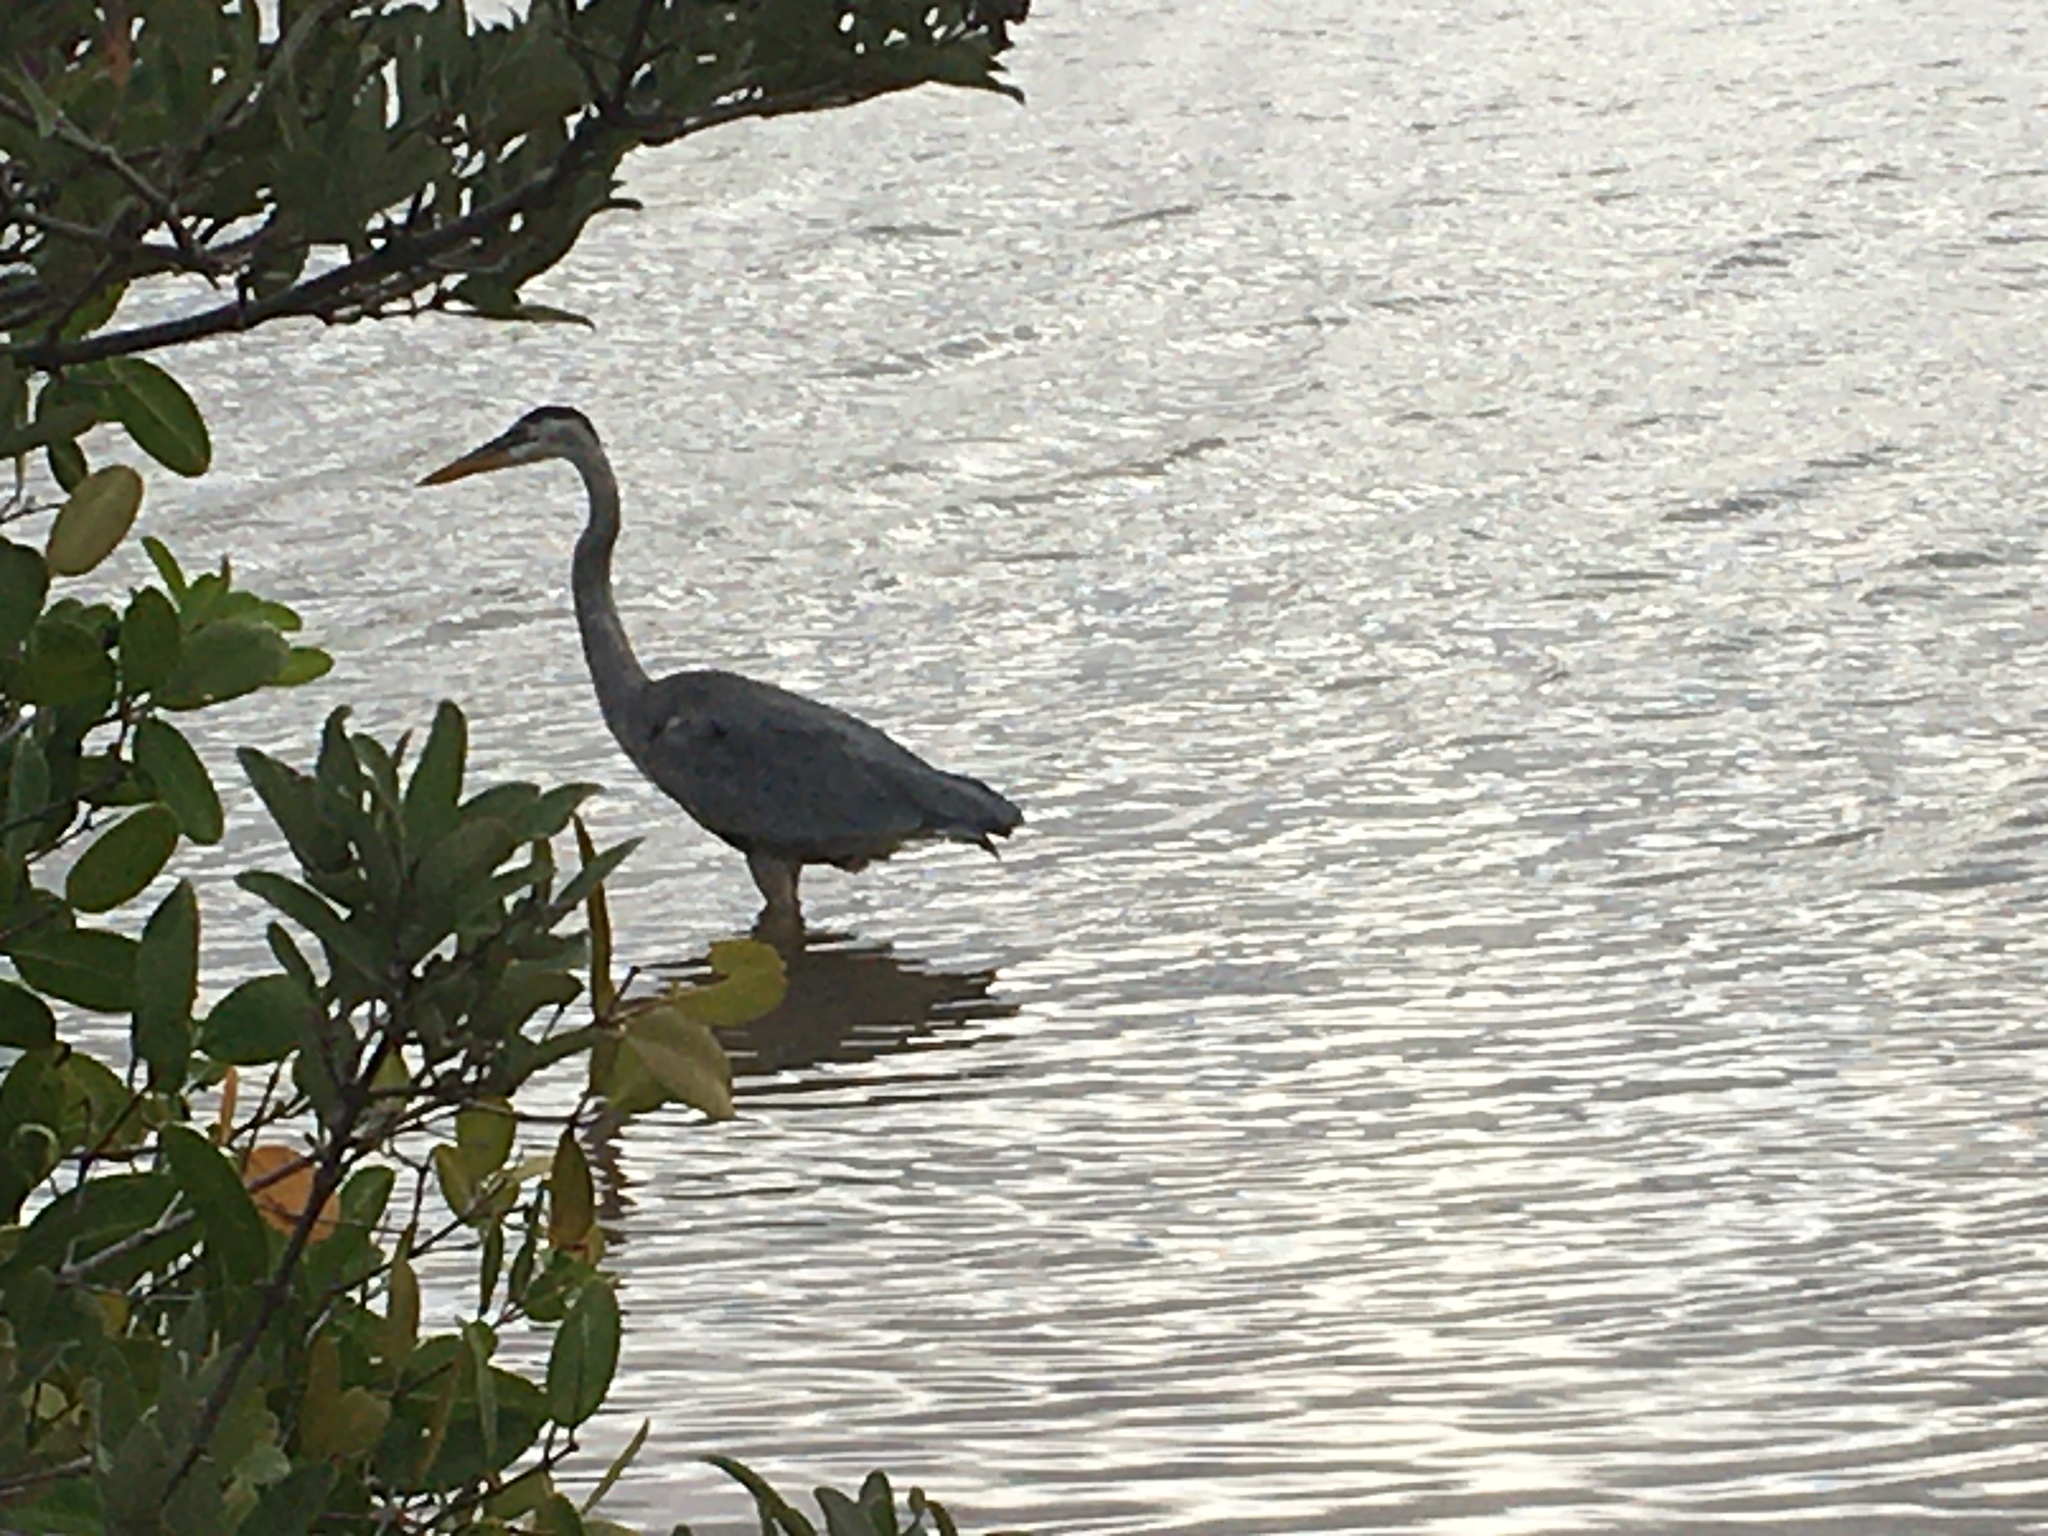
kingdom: Animalia
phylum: Chordata
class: Aves
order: Pelecaniformes
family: Ardeidae
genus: Ardea
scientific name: Ardea herodias
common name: Great blue heron
